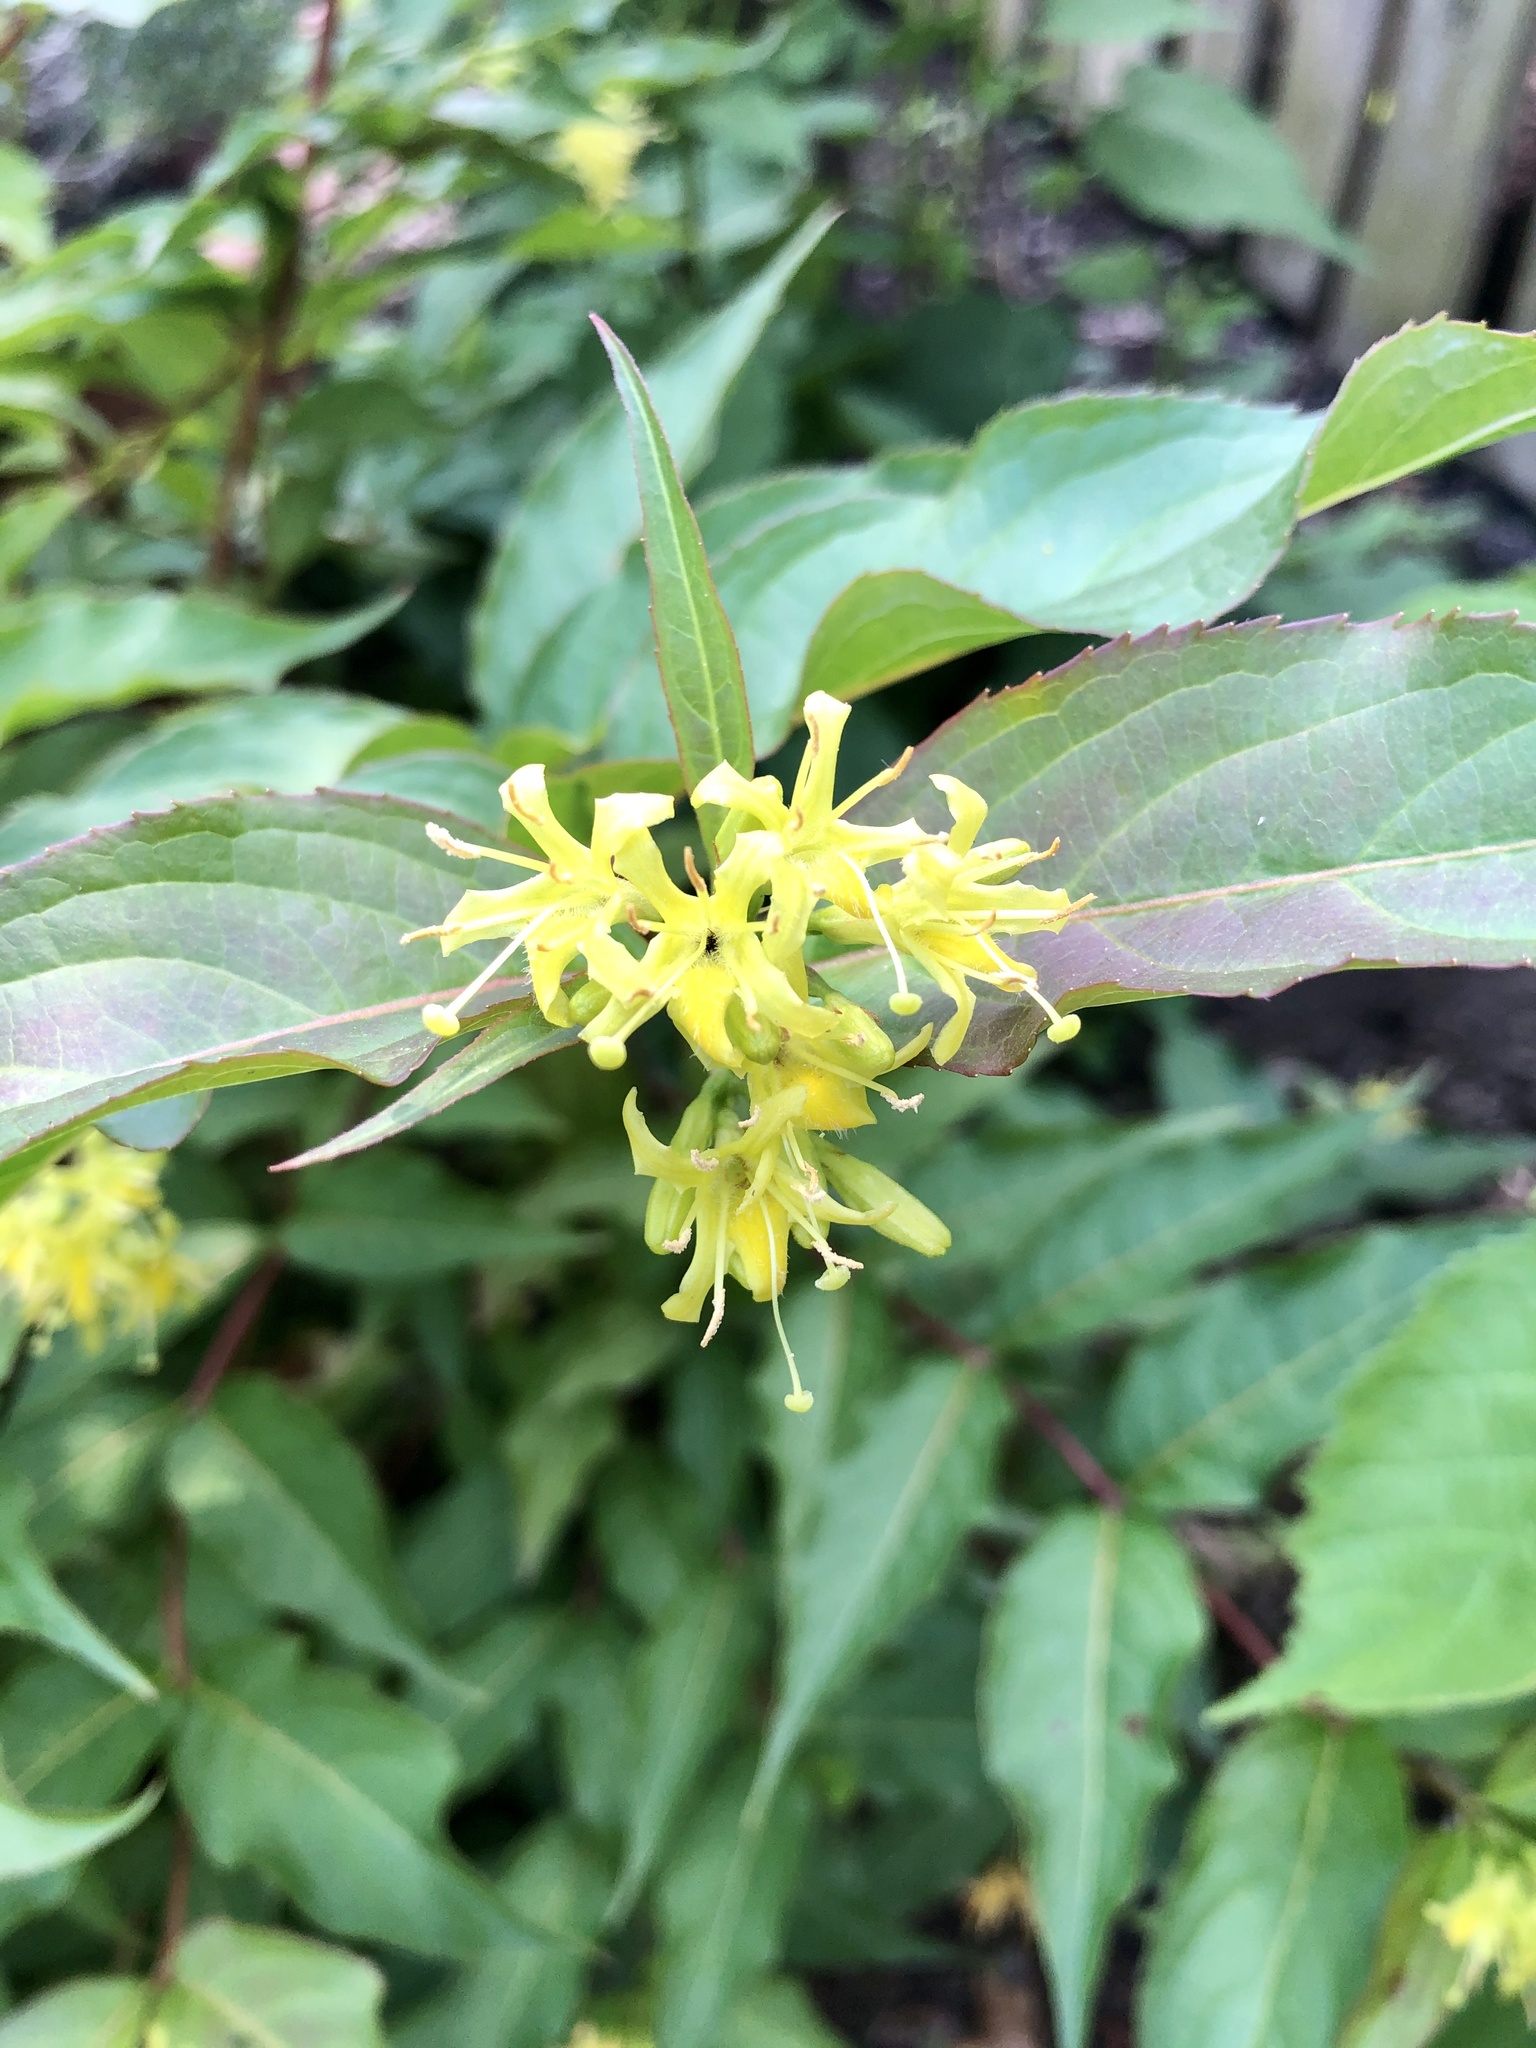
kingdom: Plantae
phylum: Tracheophyta
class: Magnoliopsida
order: Dipsacales
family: Caprifoliaceae
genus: Diervilla
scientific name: Diervilla lonicera
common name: Bush-honeysuckle
